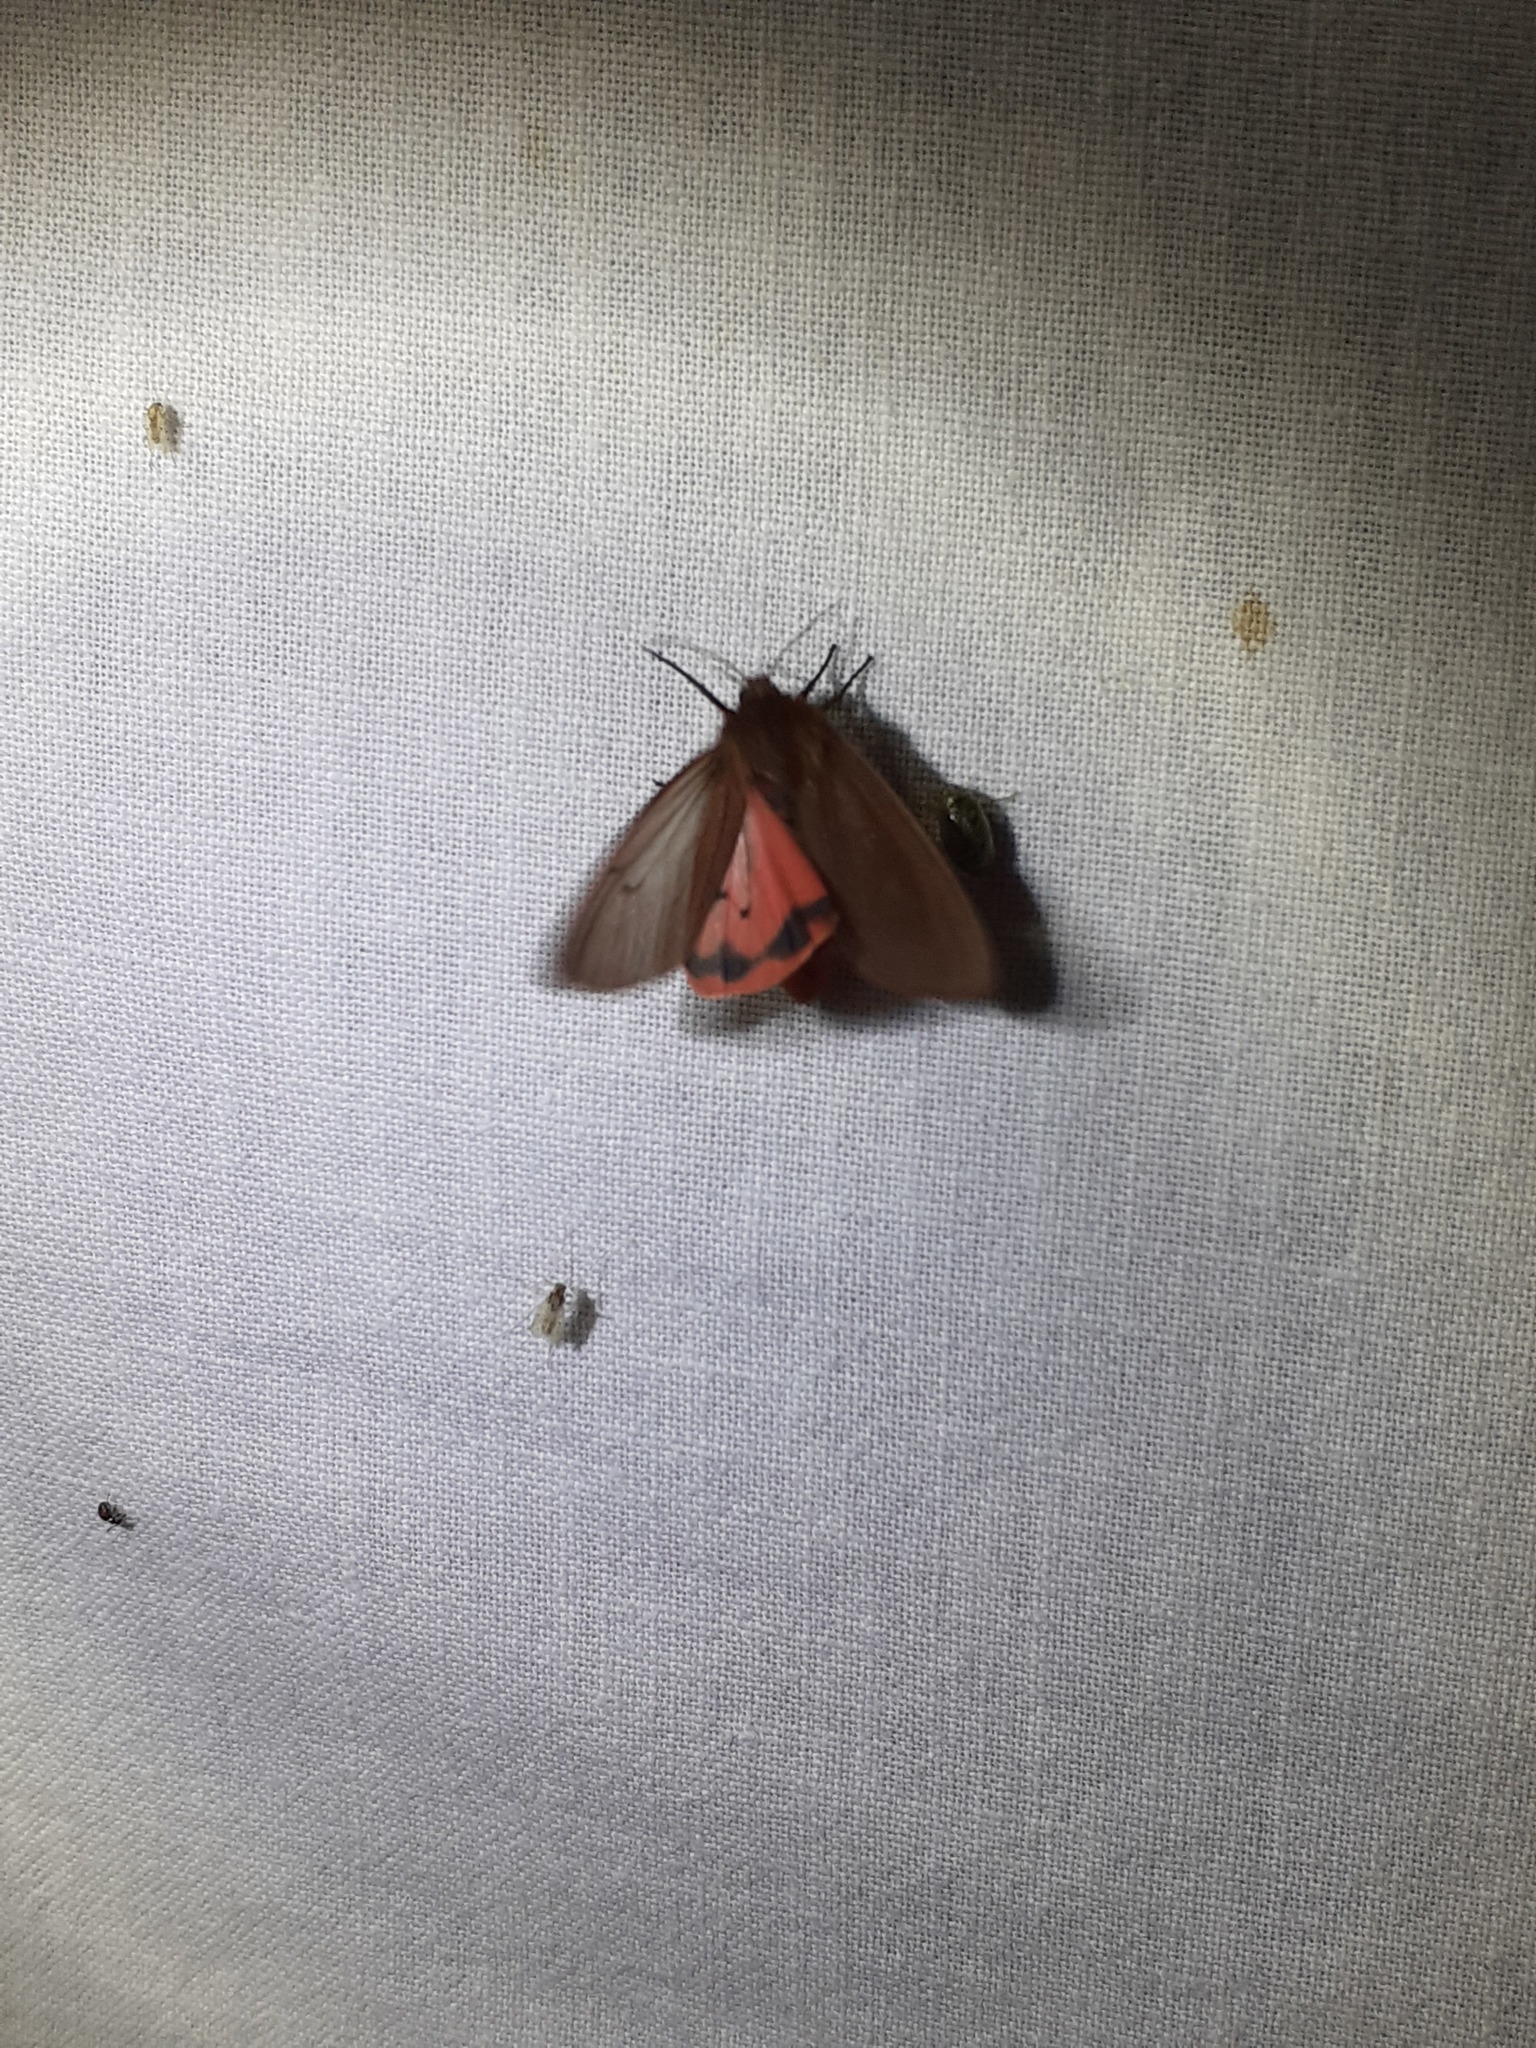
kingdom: Animalia
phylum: Arthropoda
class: Insecta
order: Lepidoptera
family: Erebidae
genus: Phragmatobia
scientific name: Phragmatobia fuliginosa
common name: Ruby tiger
